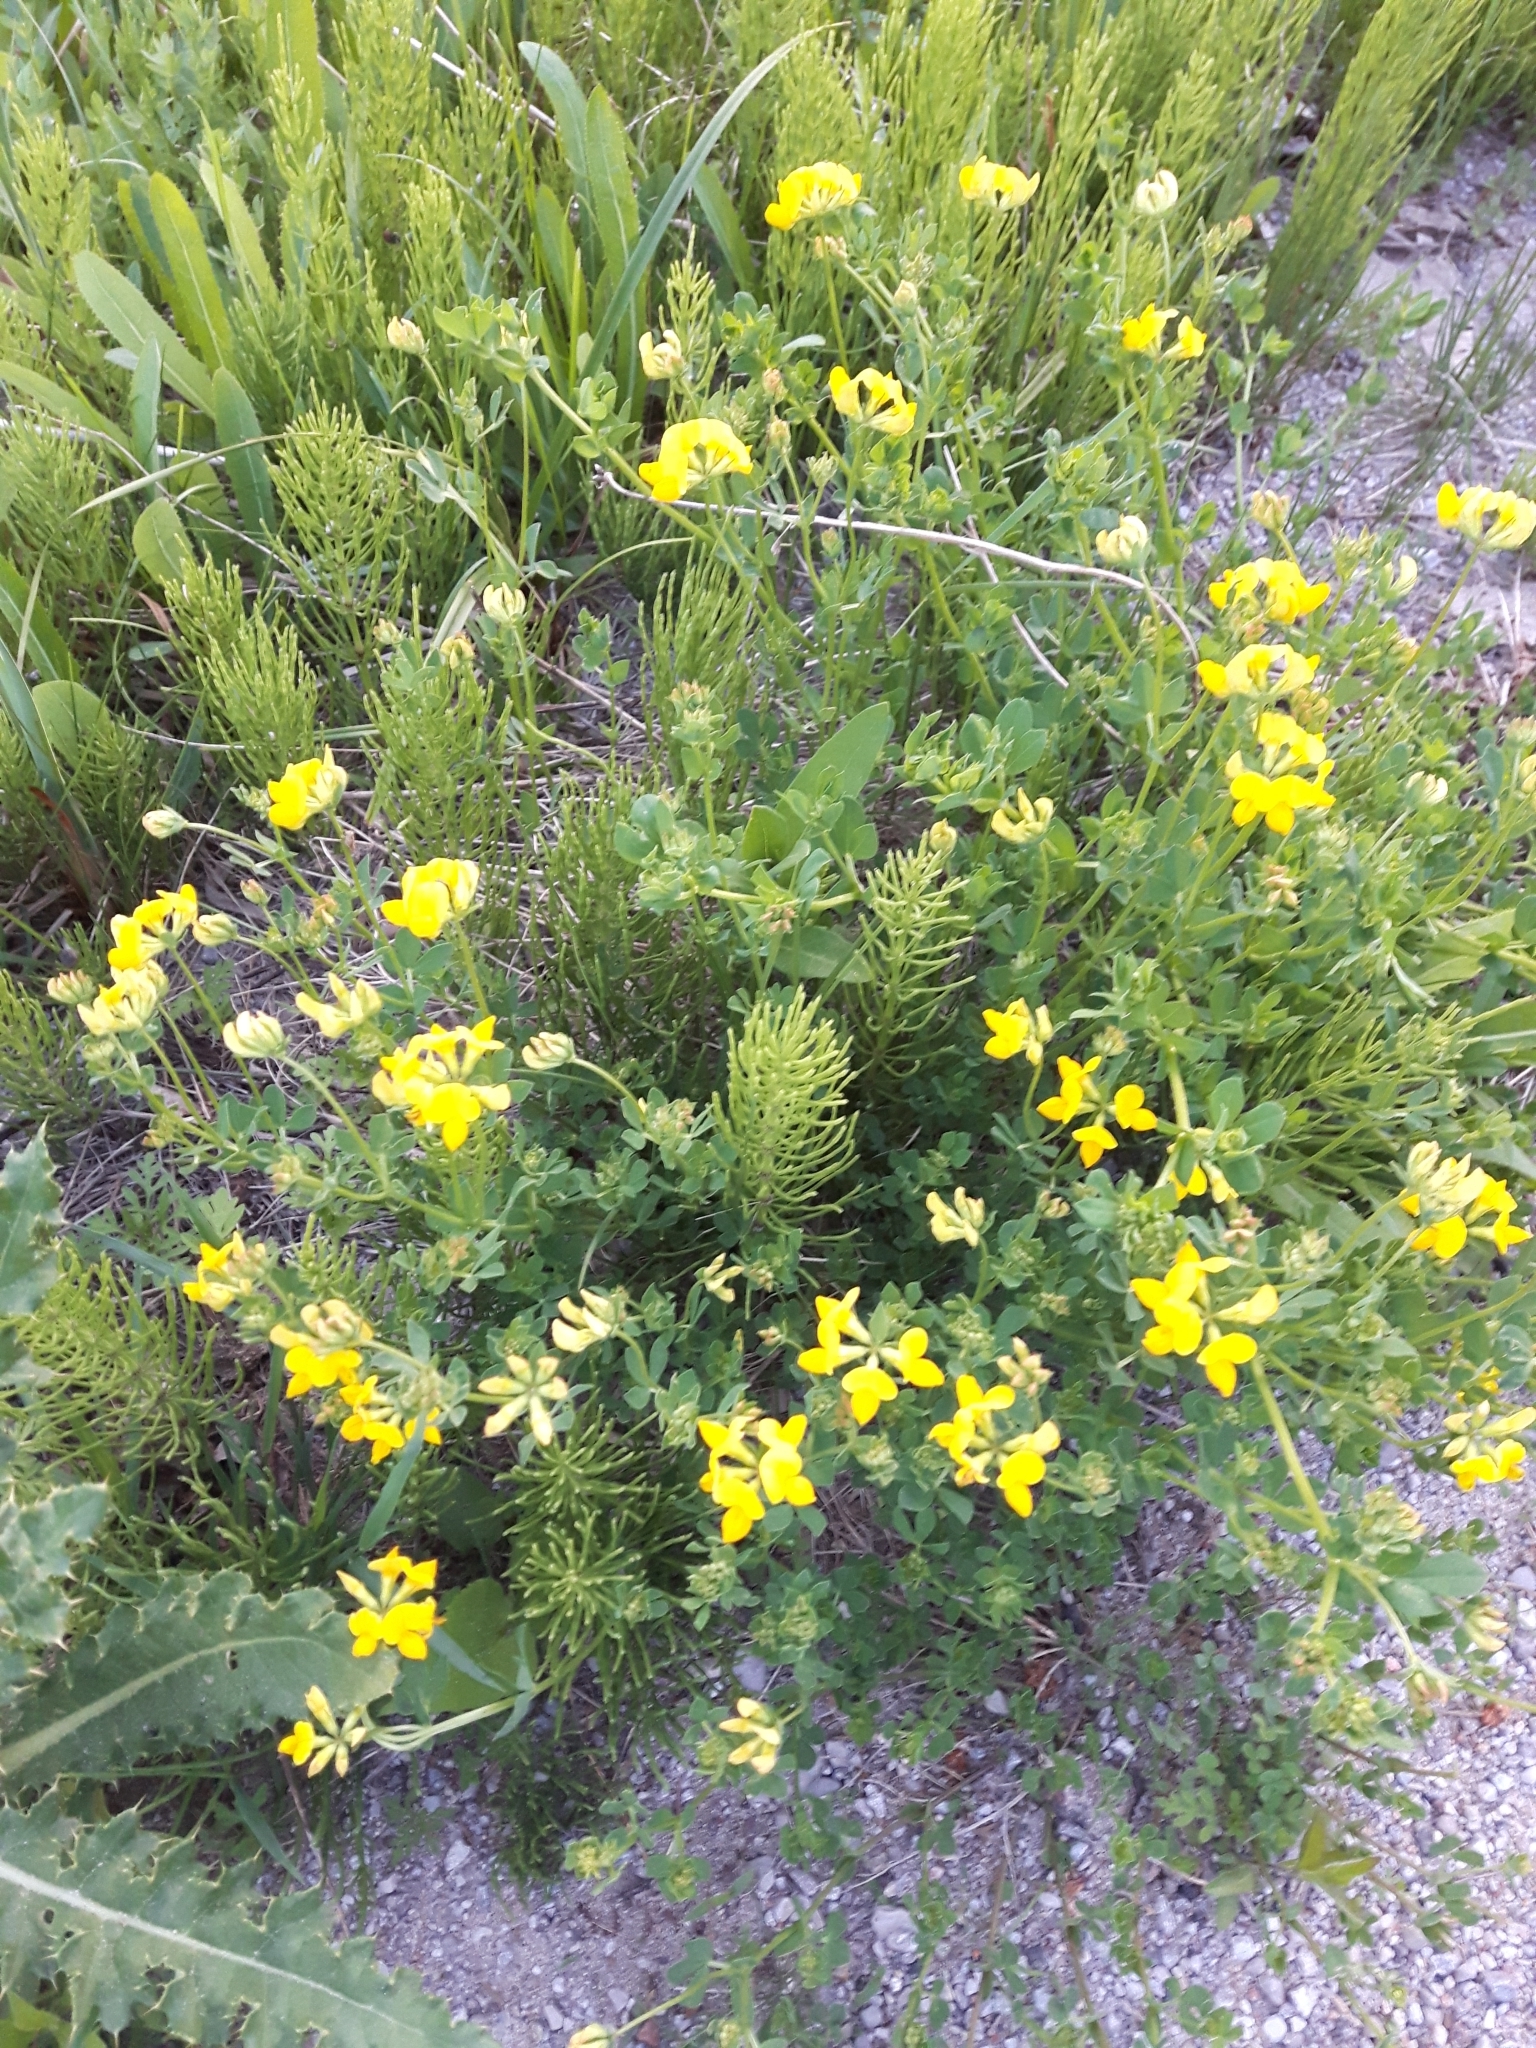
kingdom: Plantae
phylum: Tracheophyta
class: Magnoliopsida
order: Fabales
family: Fabaceae
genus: Lotus
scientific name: Lotus corniculatus
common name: Common bird's-foot-trefoil
